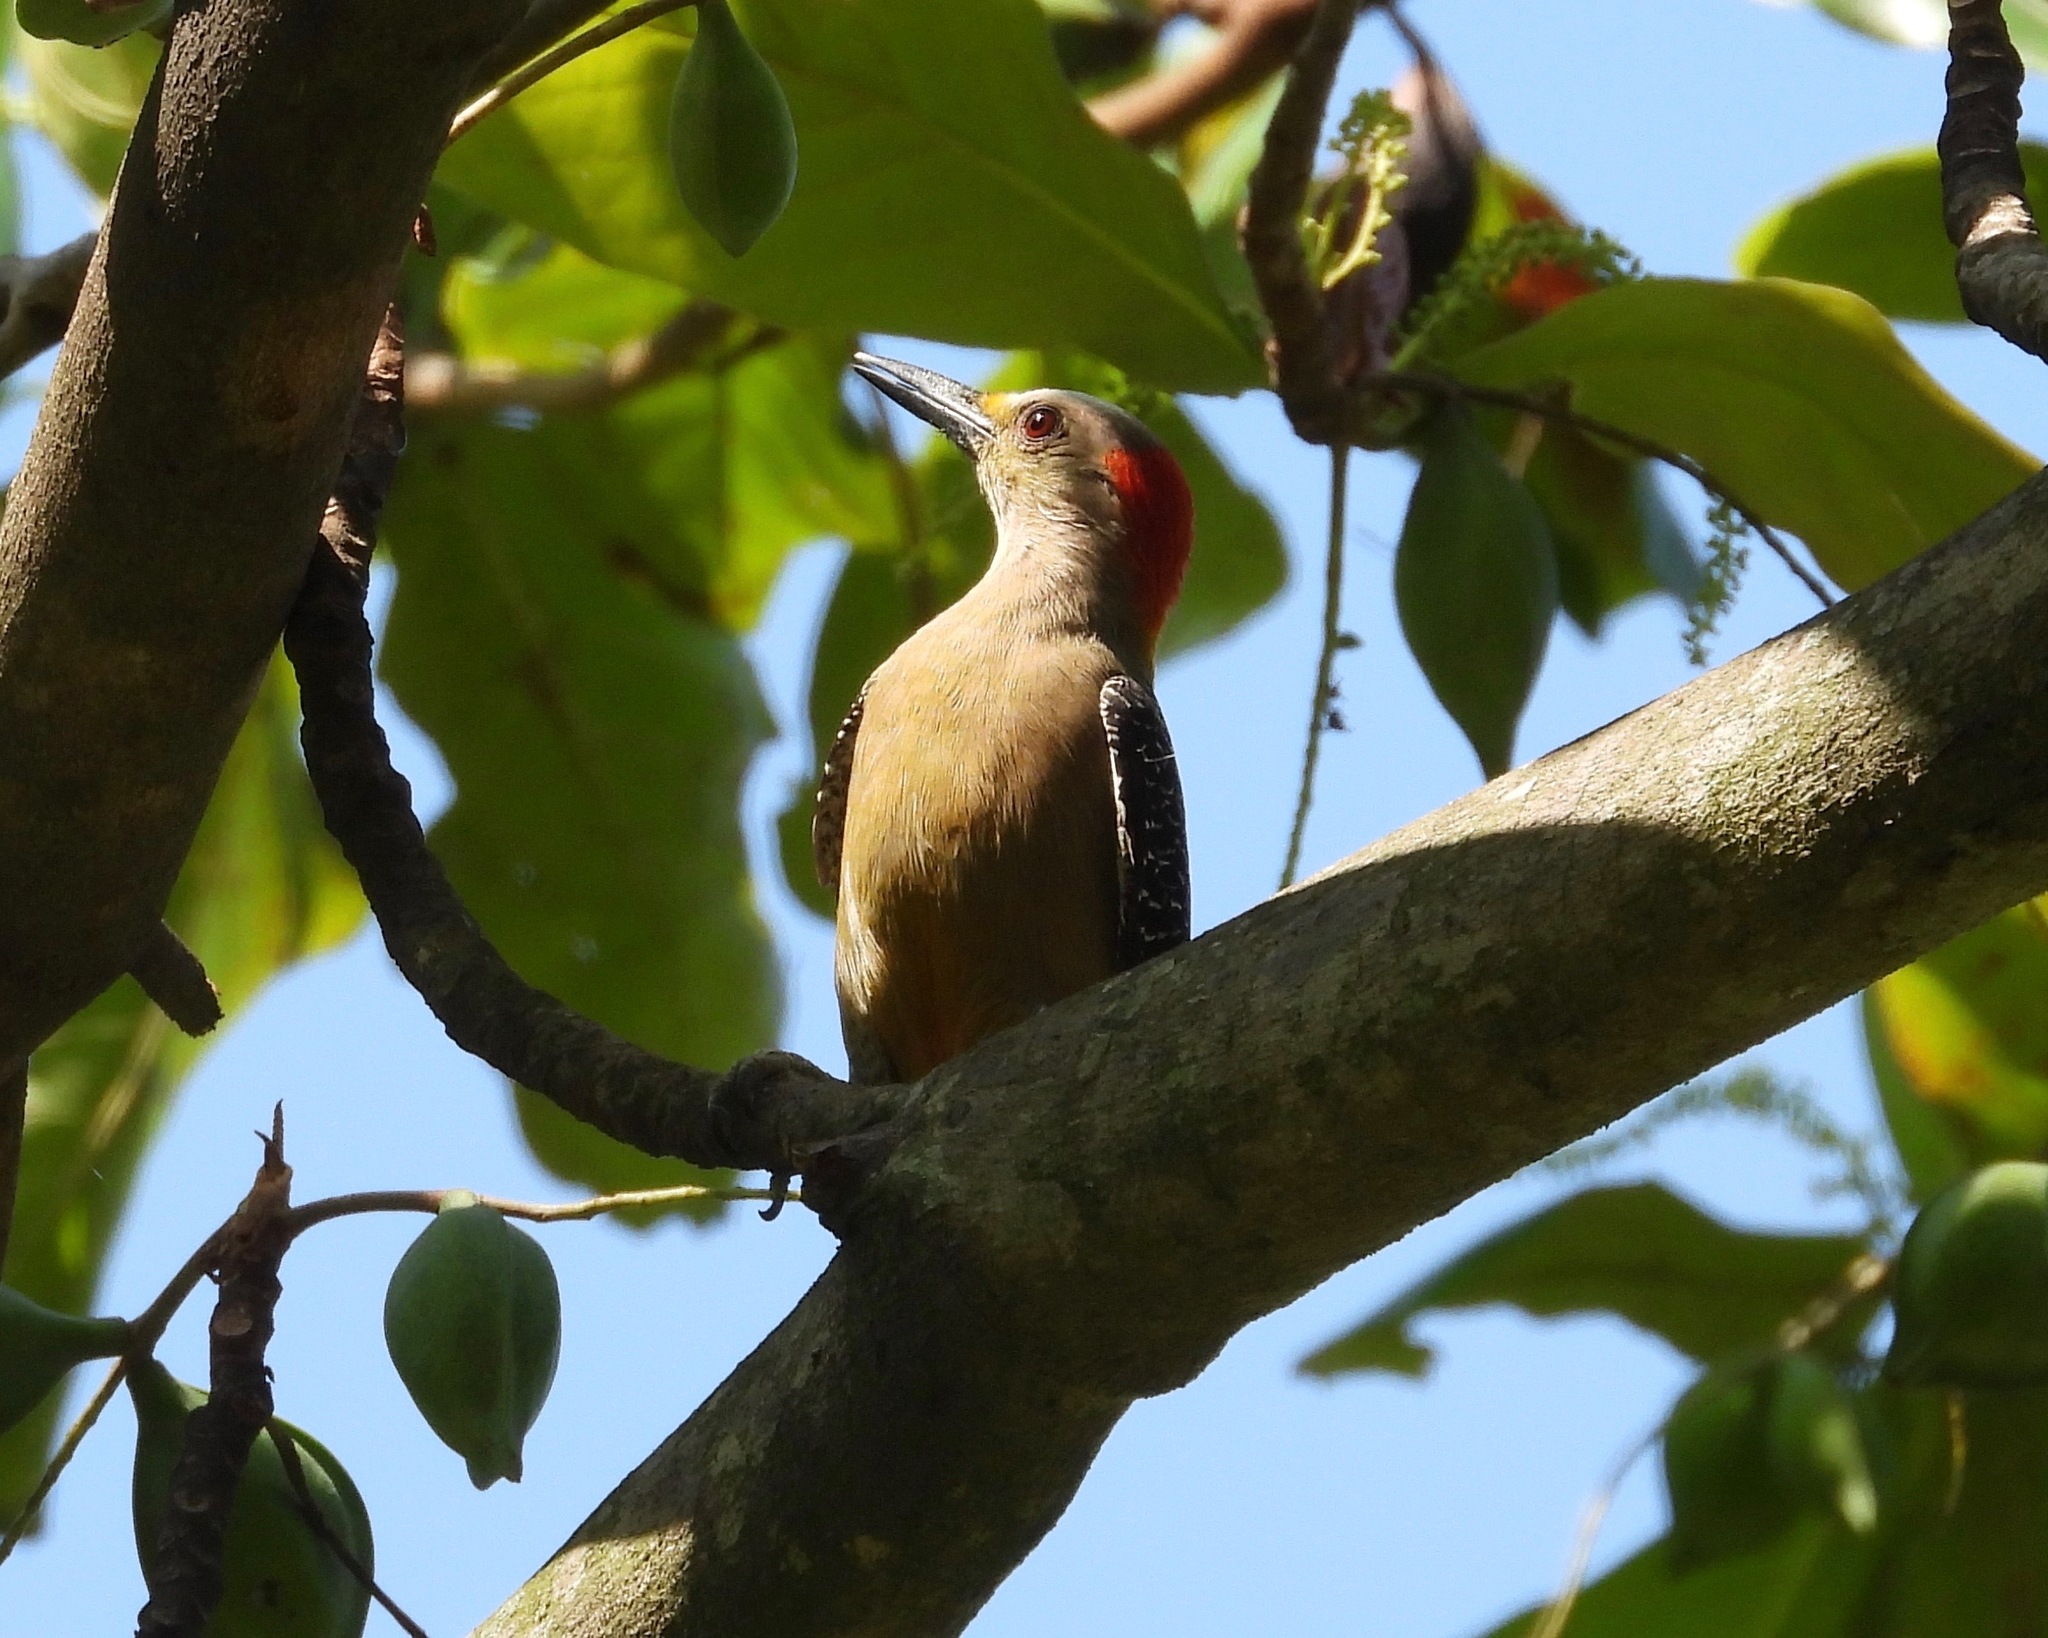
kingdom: Animalia
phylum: Chordata
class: Aves
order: Piciformes
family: Picidae
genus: Melanerpes
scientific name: Melanerpes aurifrons
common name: Golden-fronted woodpecker
